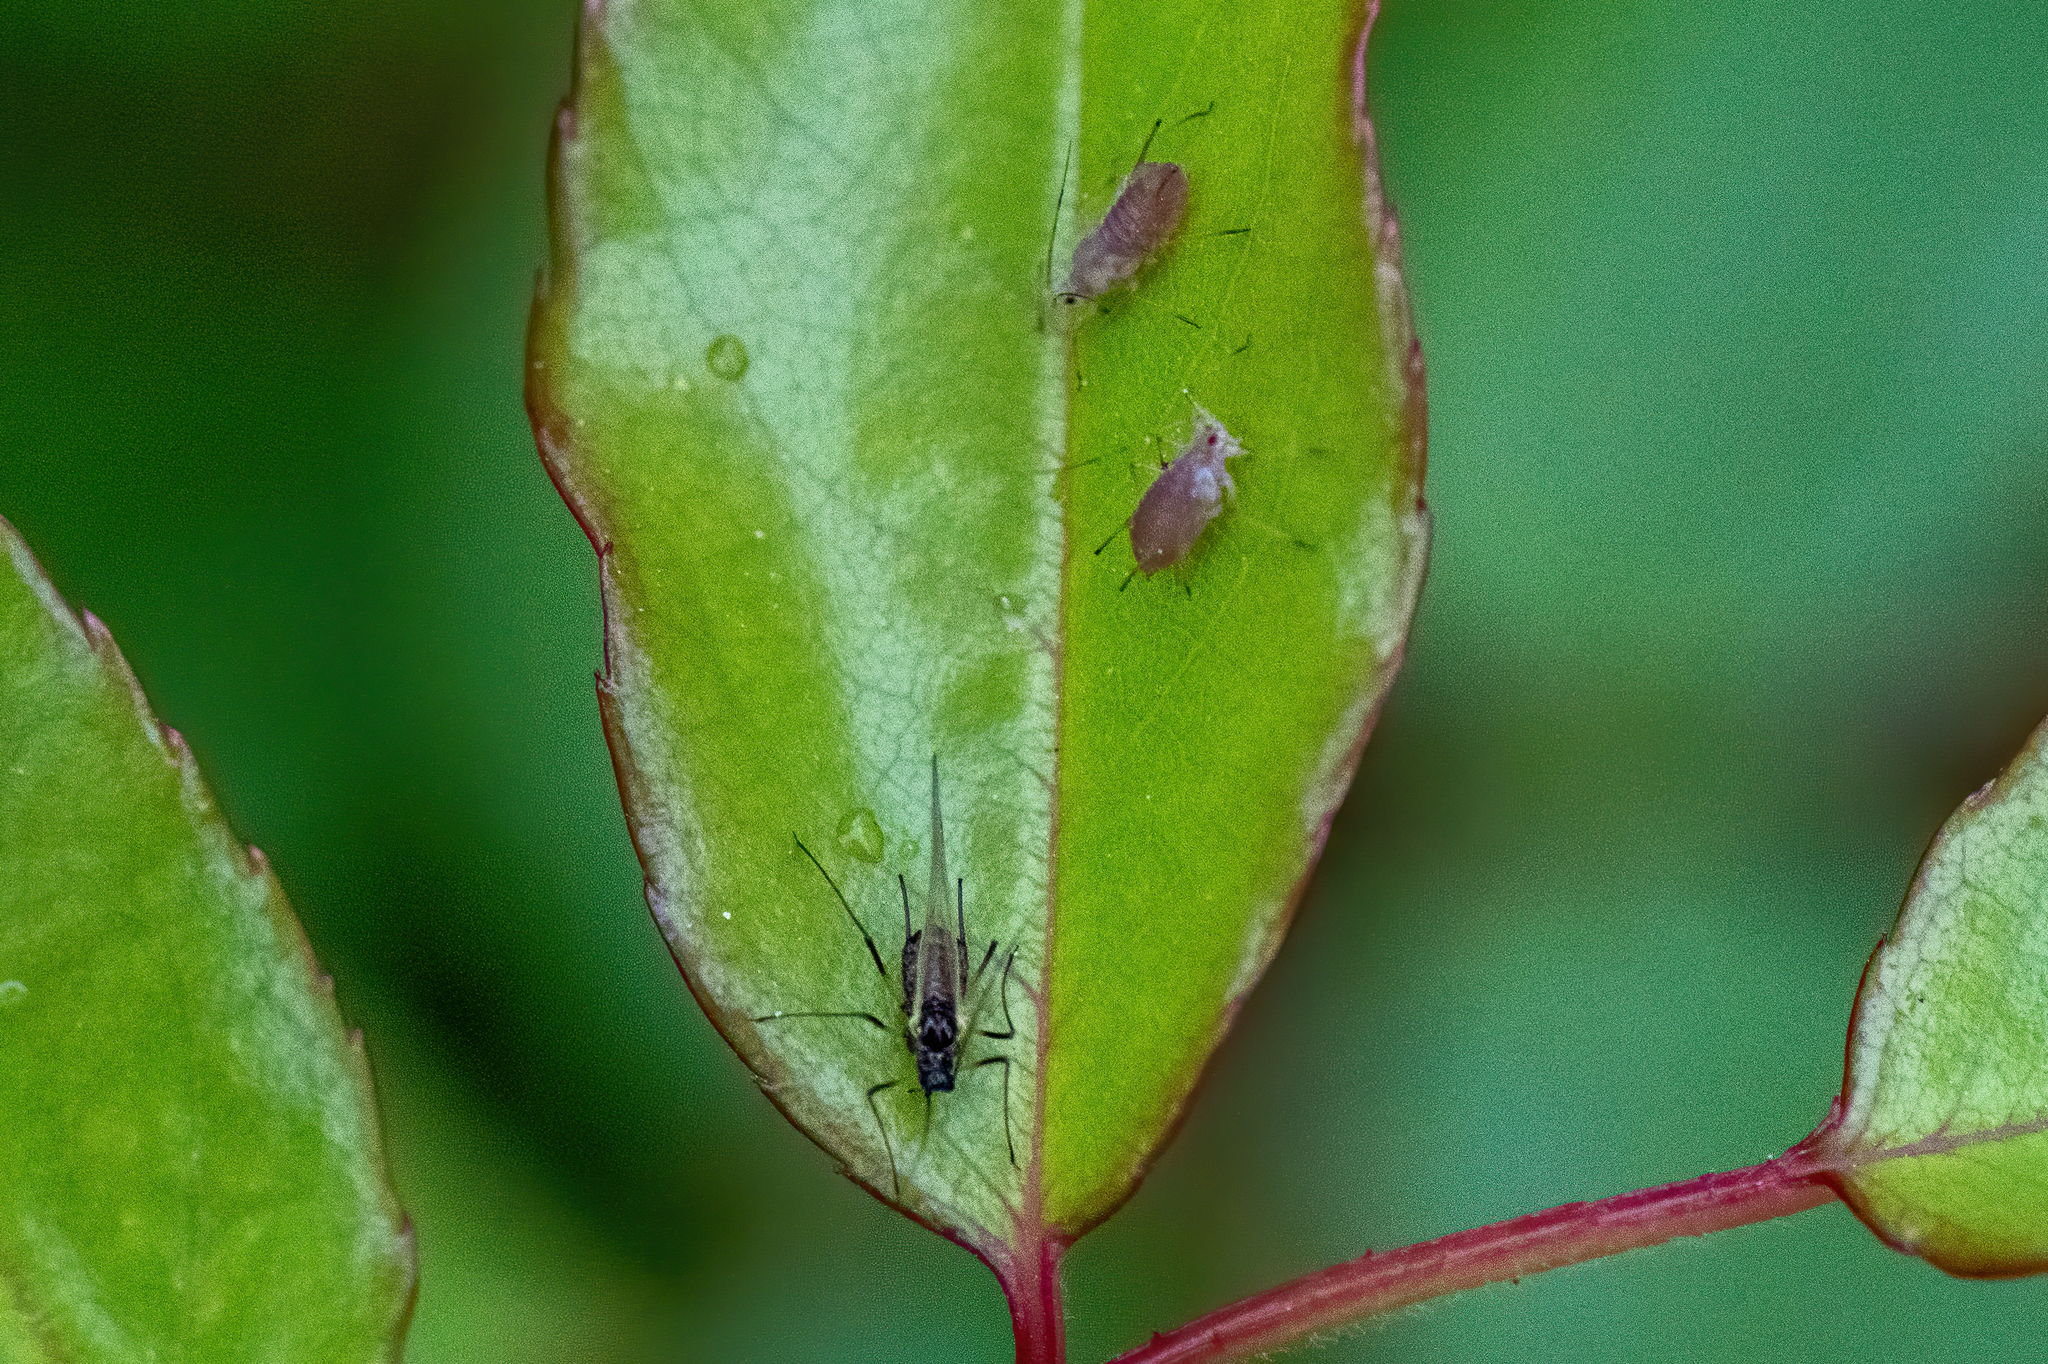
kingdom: Animalia
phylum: Arthropoda
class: Insecta
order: Hemiptera
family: Aphididae
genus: Macrosiphum
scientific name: Macrosiphum rosae
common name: Rose aphid
